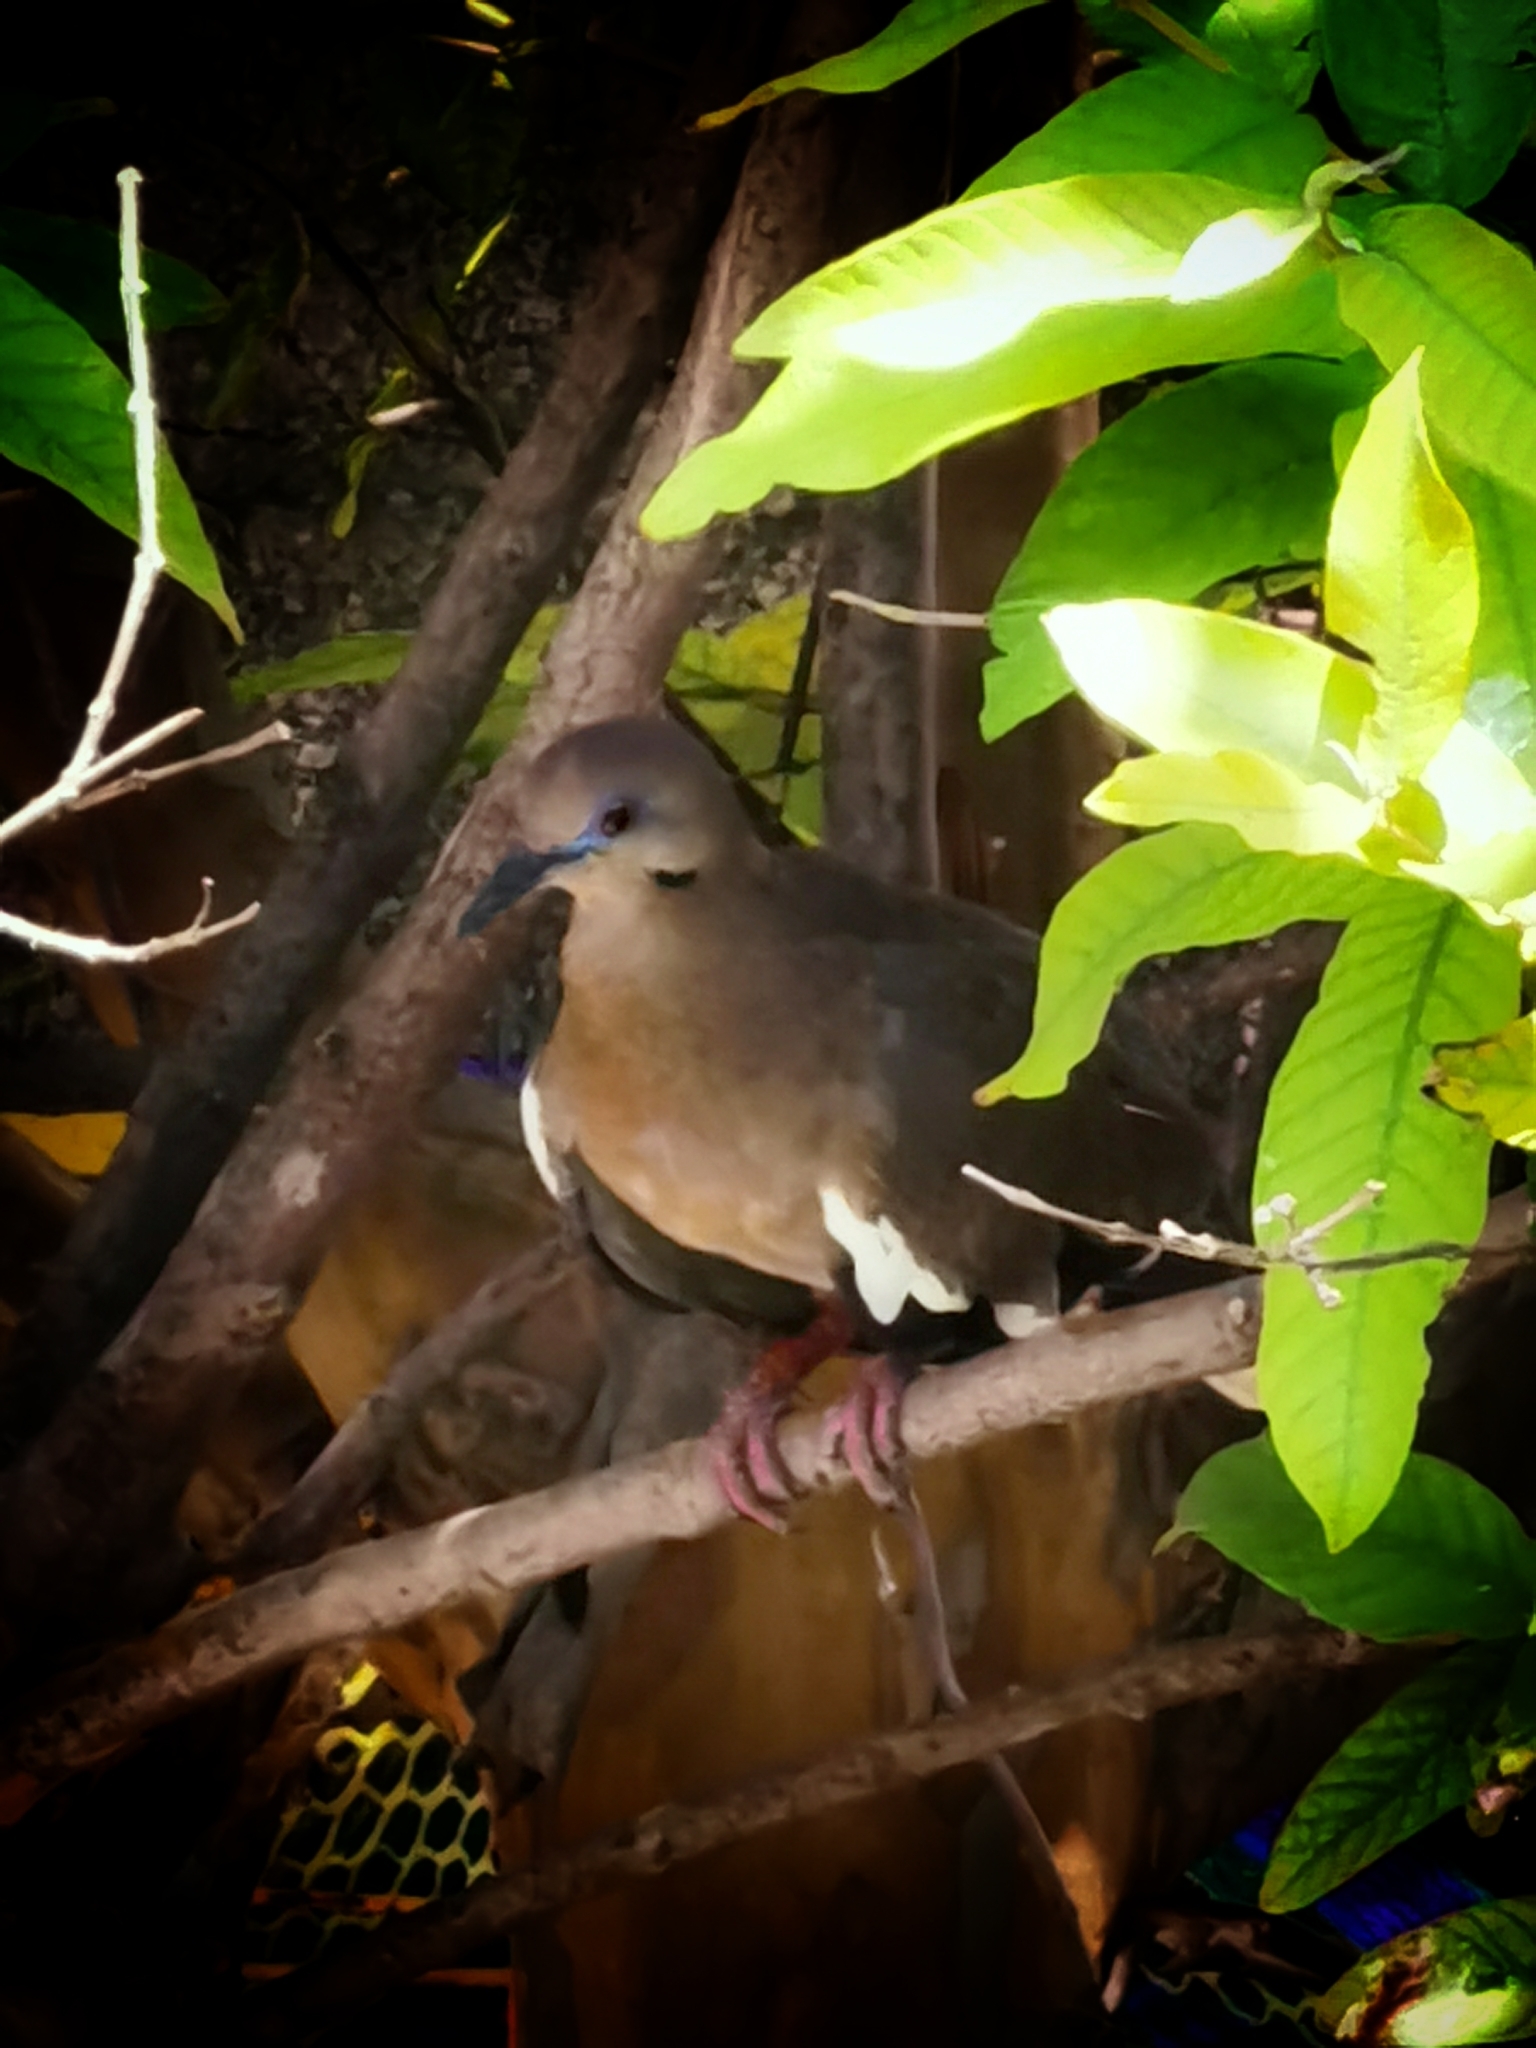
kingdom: Animalia
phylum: Chordata
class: Aves
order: Columbiformes
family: Columbidae
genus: Zenaida
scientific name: Zenaida asiatica
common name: White-winged dove
